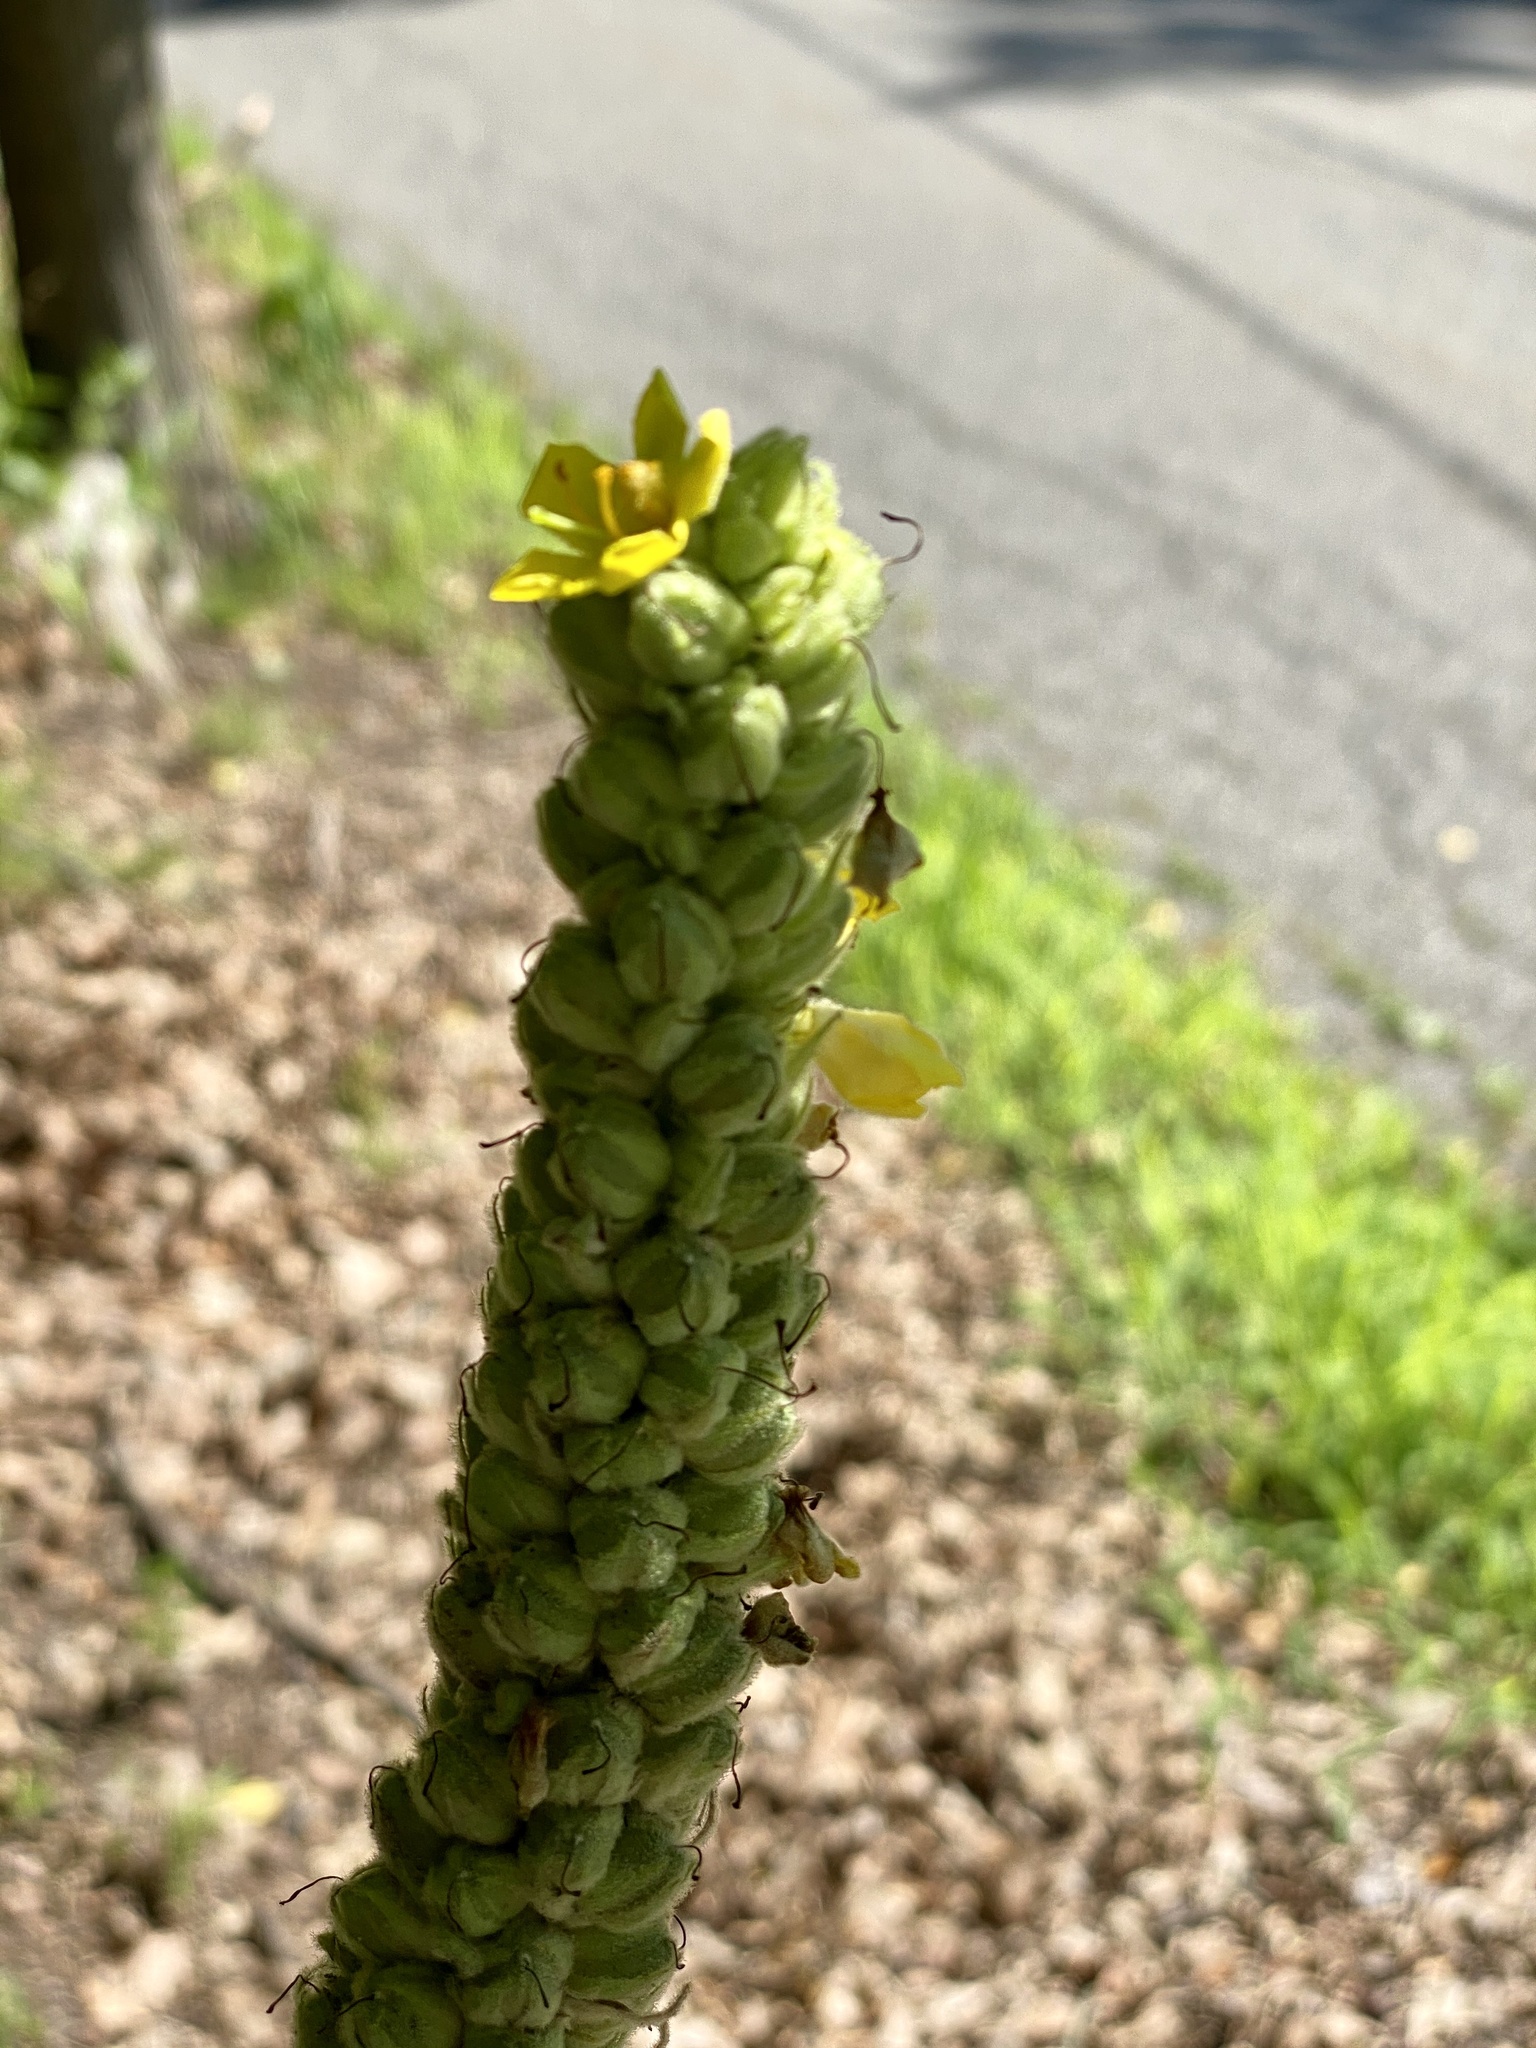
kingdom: Plantae
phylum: Tracheophyta
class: Magnoliopsida
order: Lamiales
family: Scrophulariaceae
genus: Verbascum
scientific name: Verbascum thapsus
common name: Common mullein
